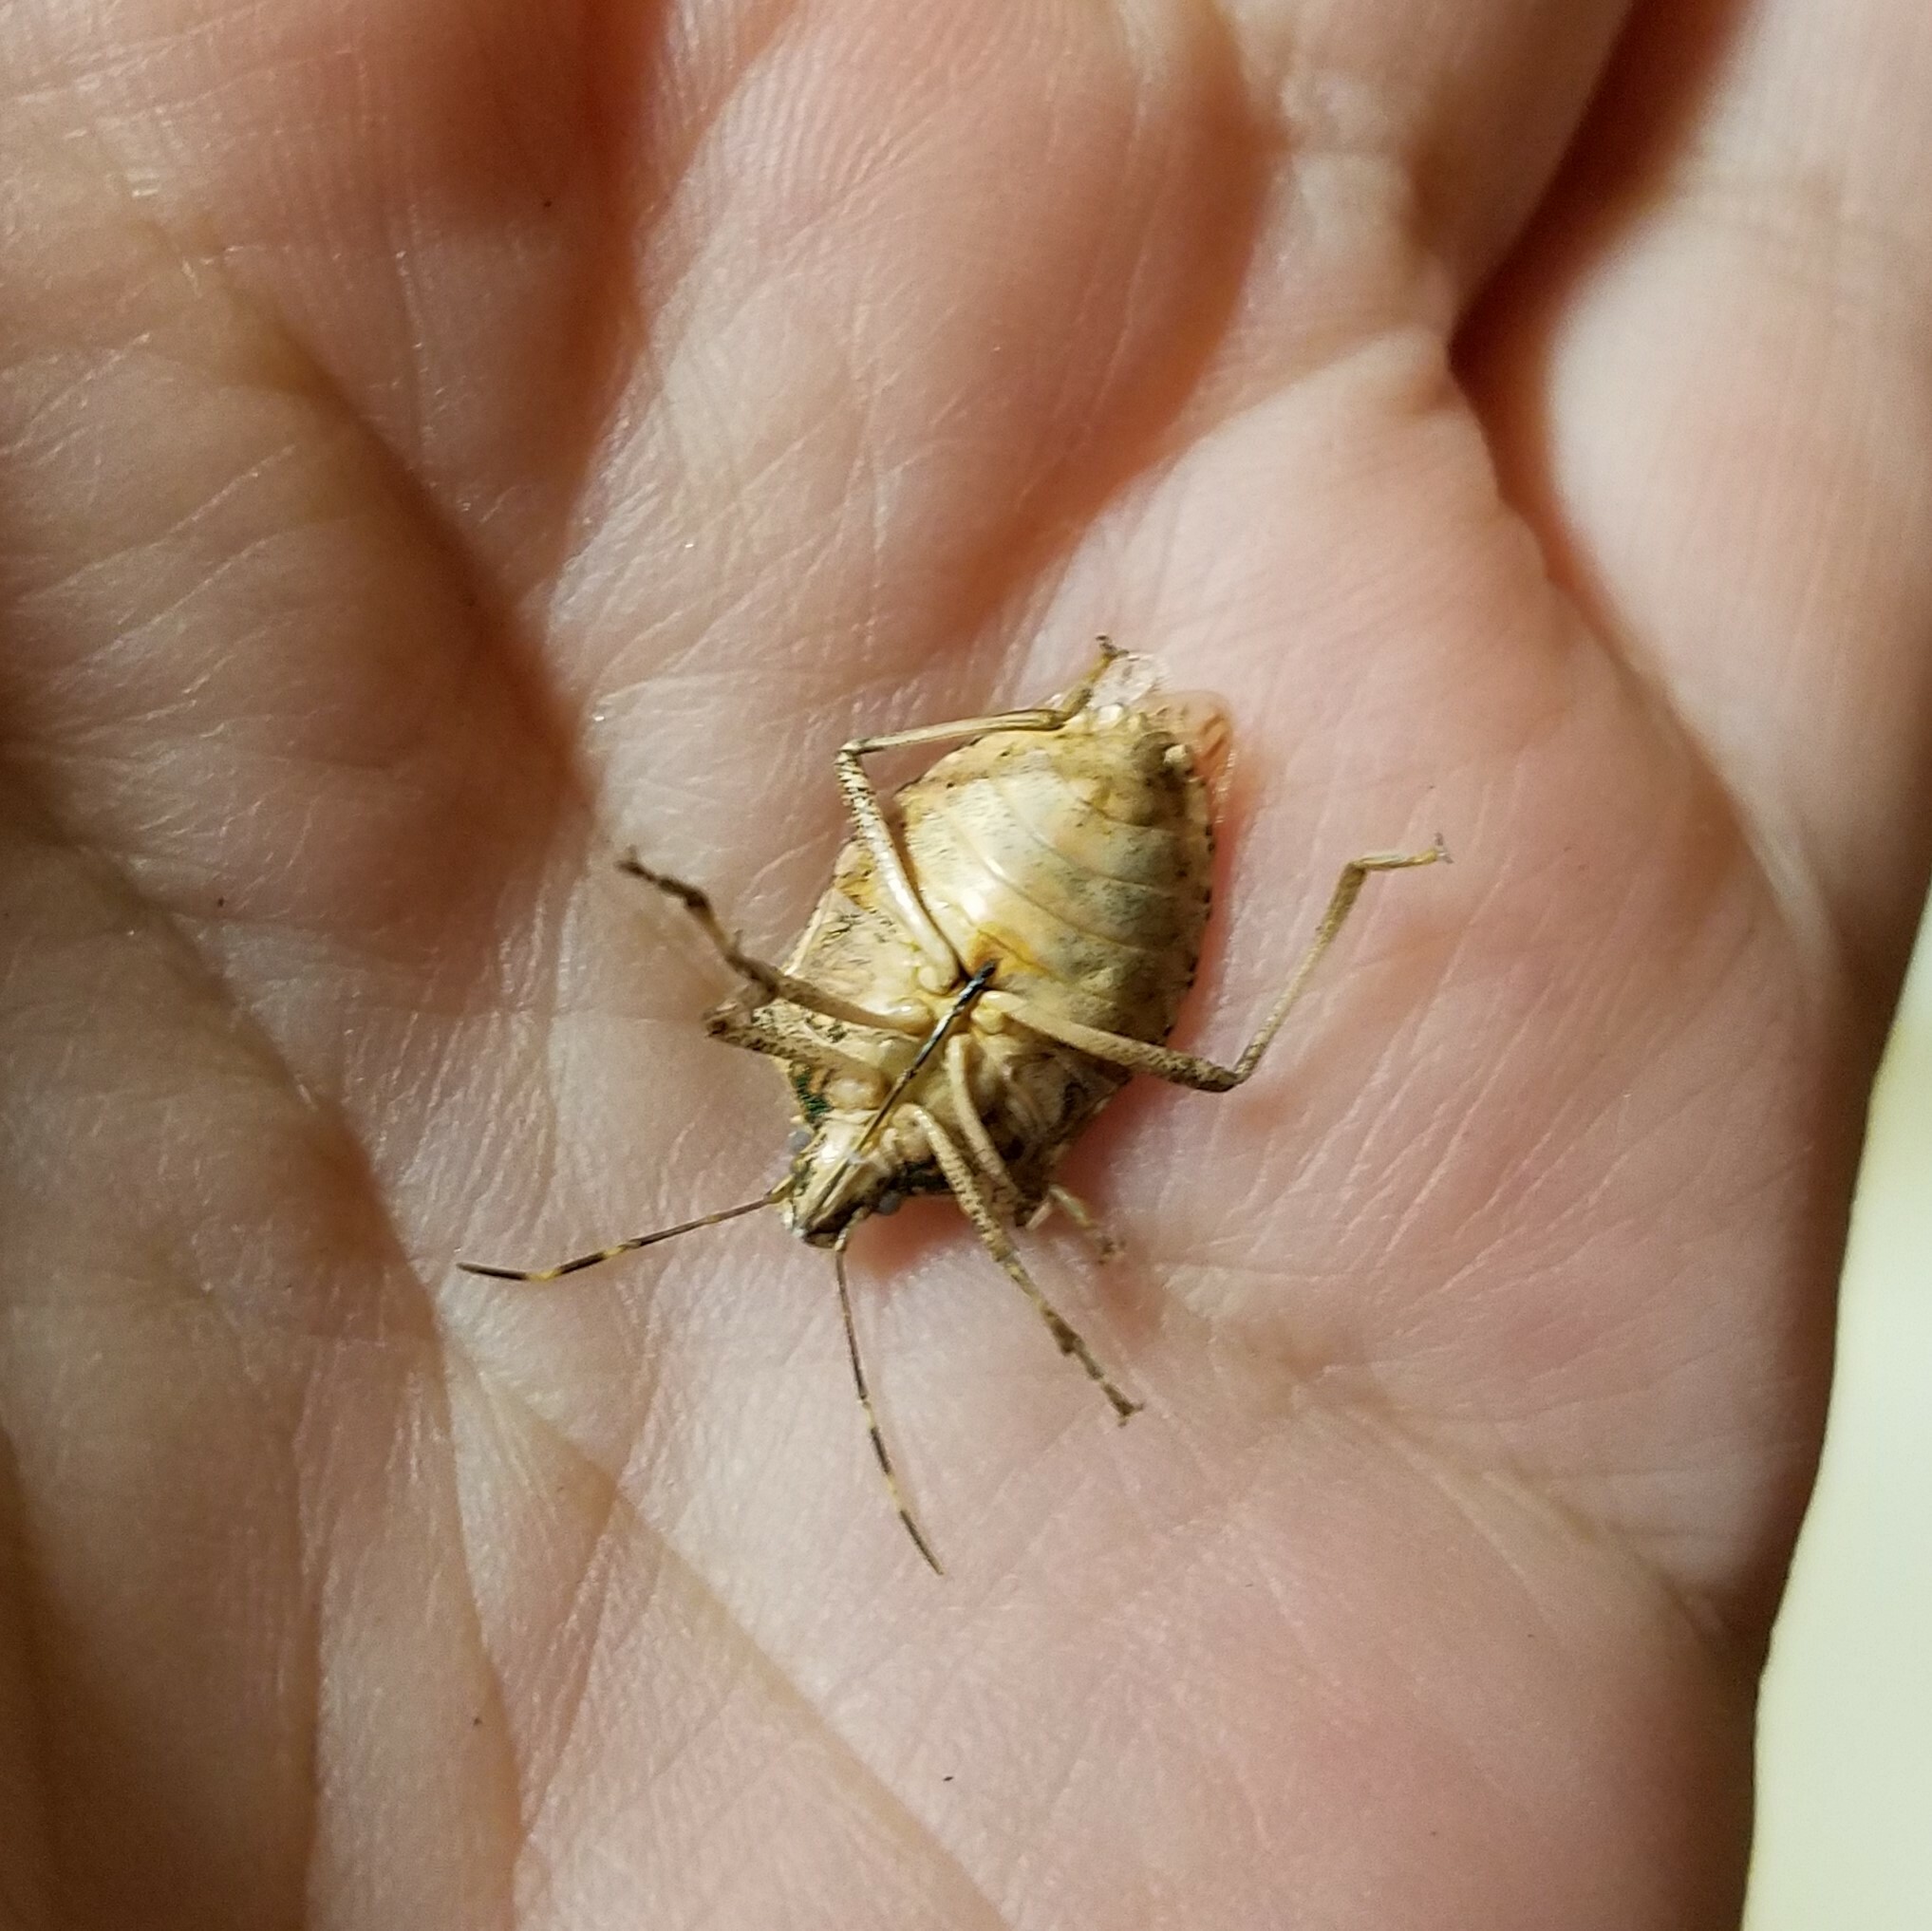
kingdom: Animalia
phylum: Arthropoda
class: Insecta
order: Hemiptera
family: Pentatomidae
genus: Halyomorpha
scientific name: Halyomorpha halys
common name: Brown marmorated stink bug
